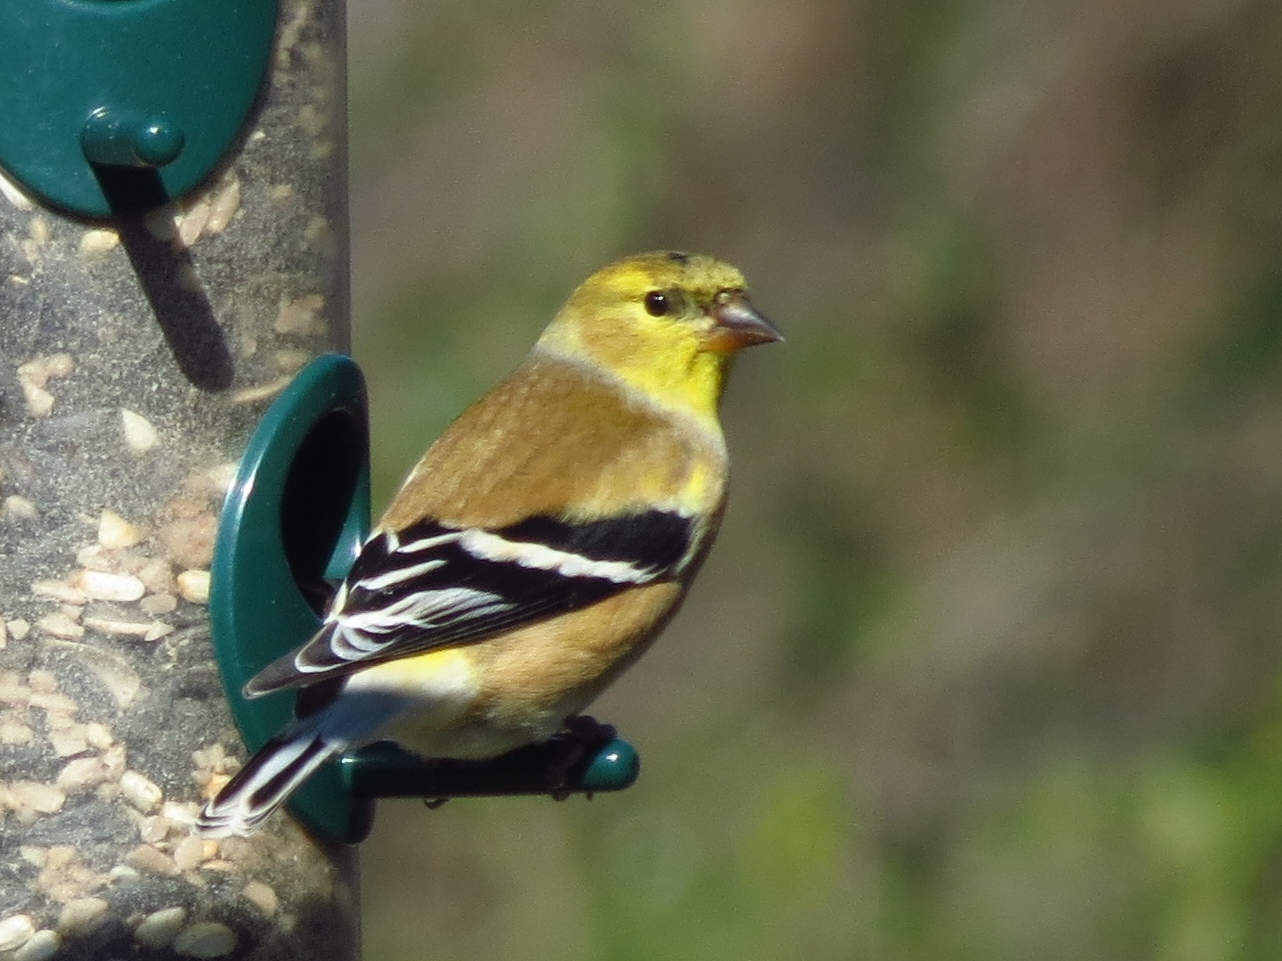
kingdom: Animalia
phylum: Chordata
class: Aves
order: Passeriformes
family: Fringillidae
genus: Spinus
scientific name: Spinus tristis
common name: American goldfinch
